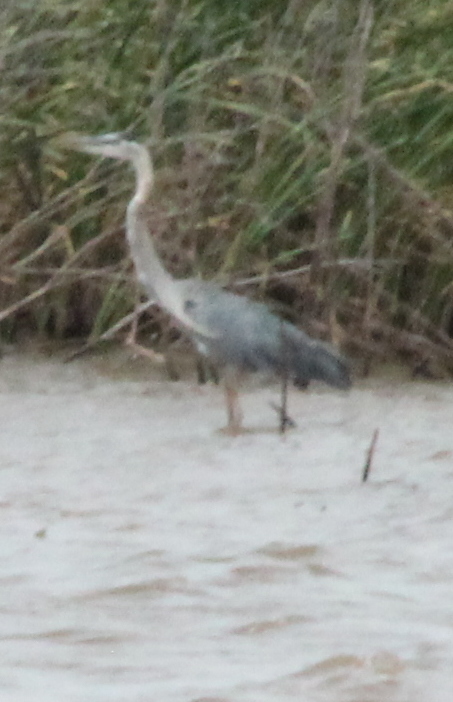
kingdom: Animalia
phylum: Chordata
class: Aves
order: Pelecaniformes
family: Ardeidae
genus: Ardea
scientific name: Ardea herodias
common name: Great blue heron
